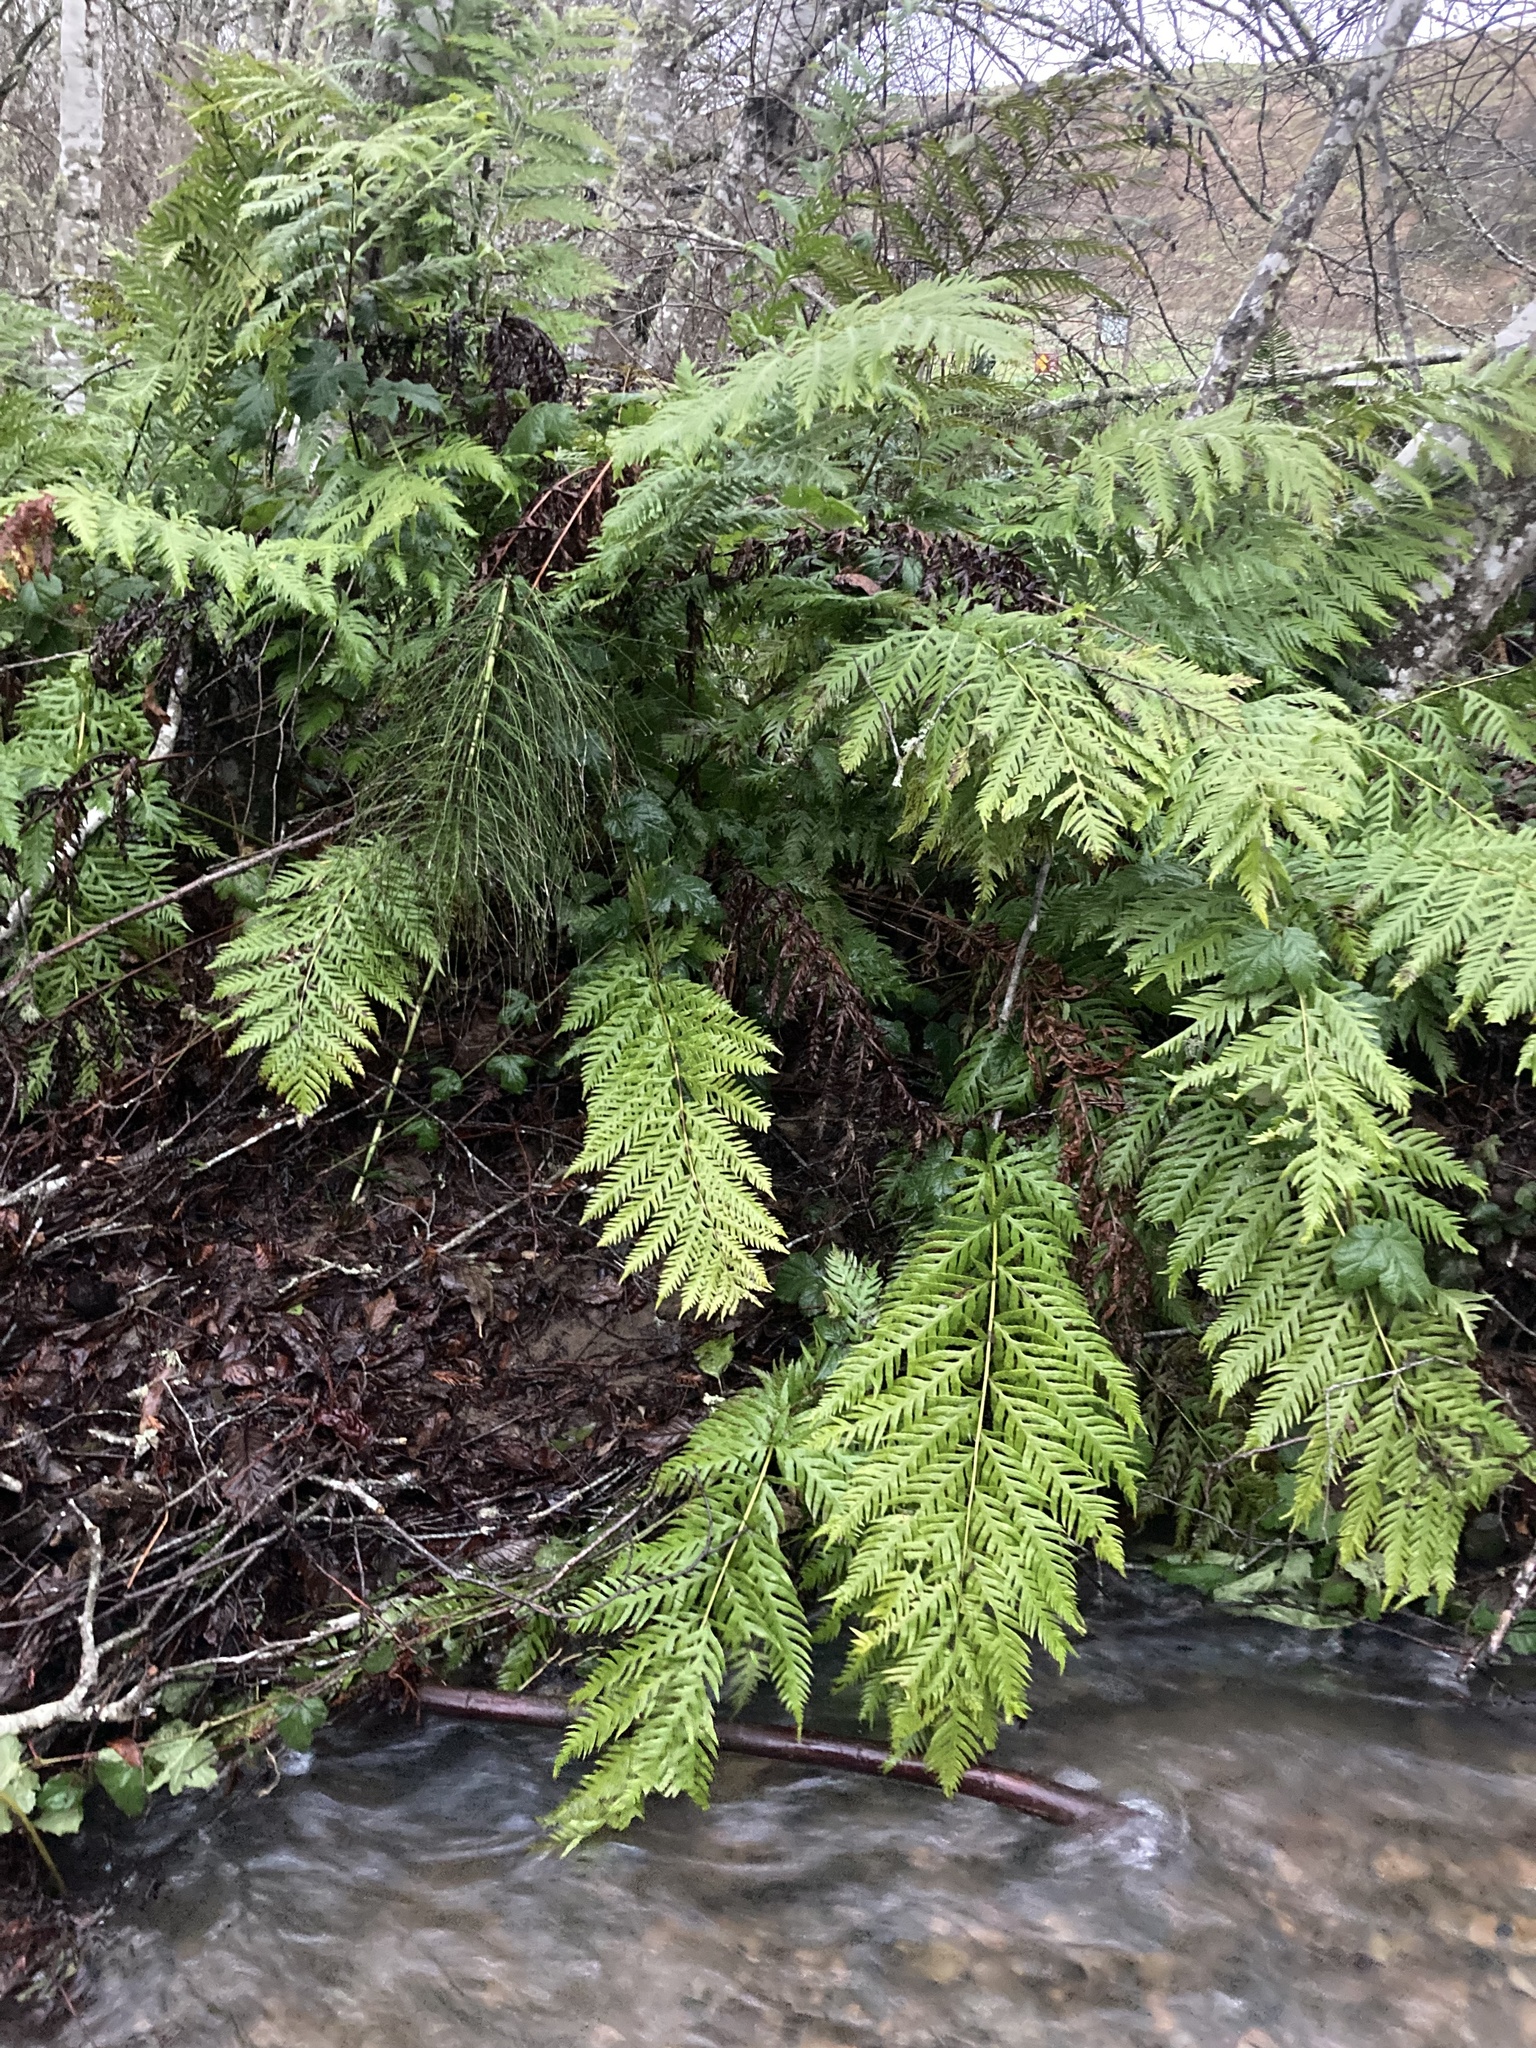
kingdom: Plantae
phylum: Tracheophyta
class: Polypodiopsida
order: Polypodiales
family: Blechnaceae
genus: Woodwardia
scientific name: Woodwardia fimbriata
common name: Giant chain fern
